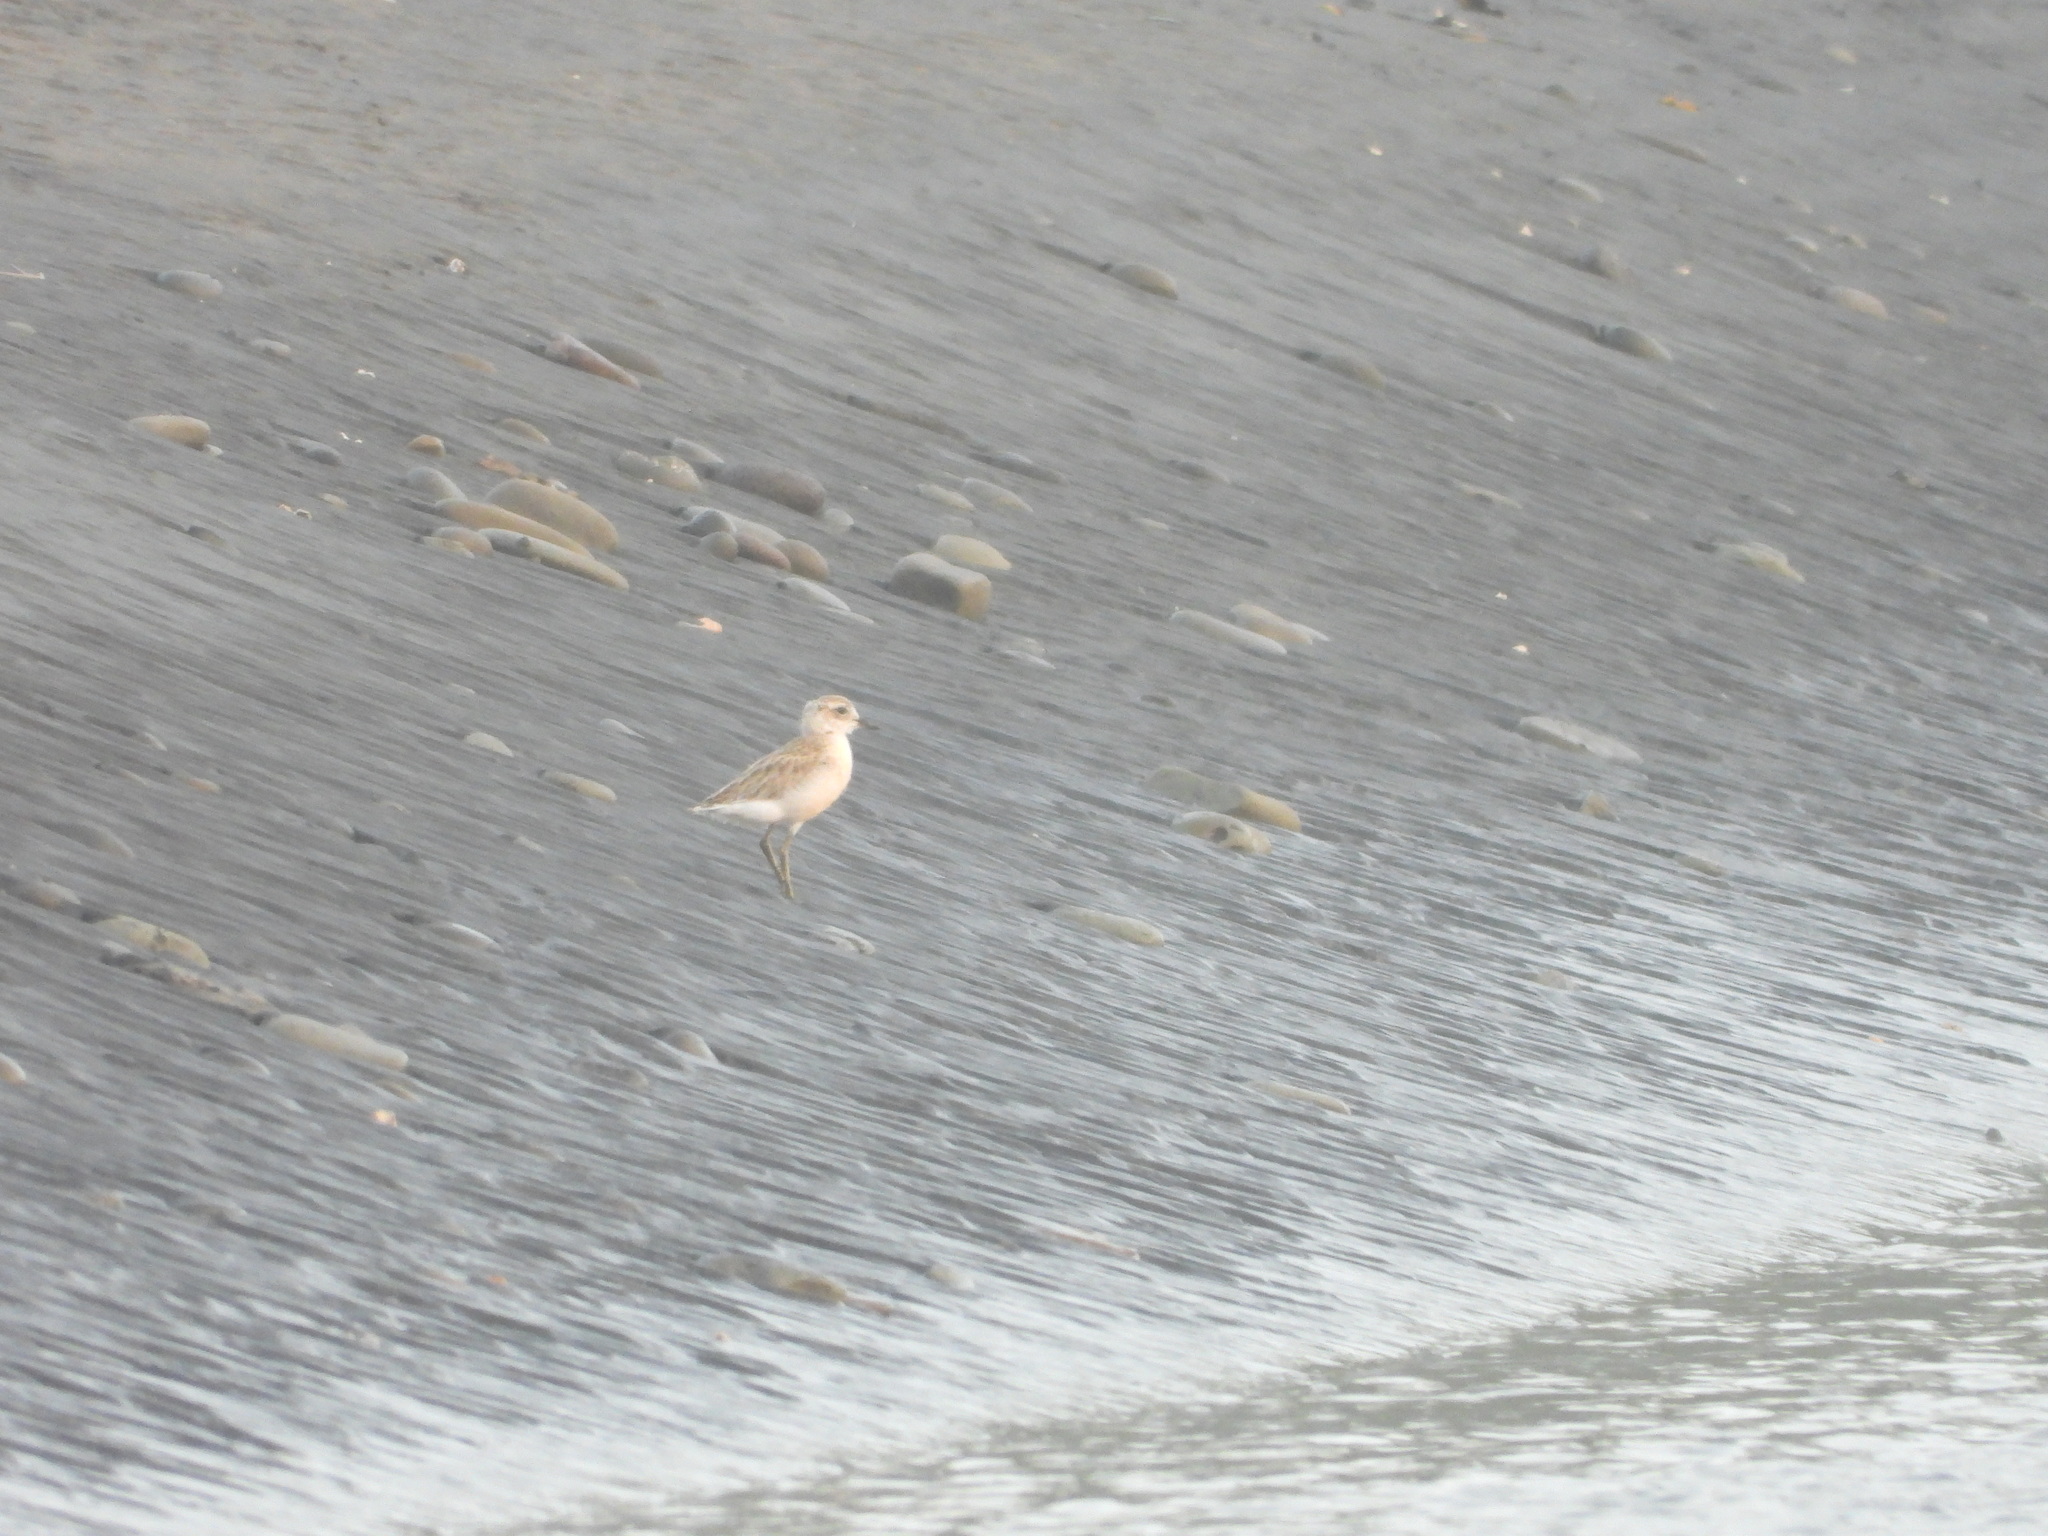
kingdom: Animalia
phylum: Chordata
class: Aves
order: Charadriiformes
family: Charadriidae
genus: Anarhynchus
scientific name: Anarhynchus
